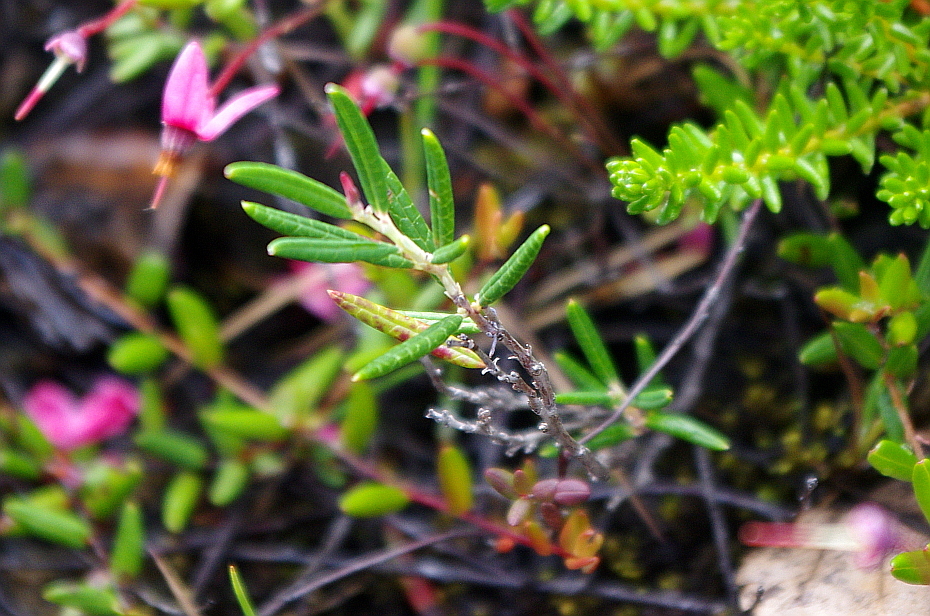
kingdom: Plantae
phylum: Tracheophyta
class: Magnoliopsida
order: Ericales
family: Ericaceae
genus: Andromeda
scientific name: Andromeda polifolia
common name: Bog-rosemary
